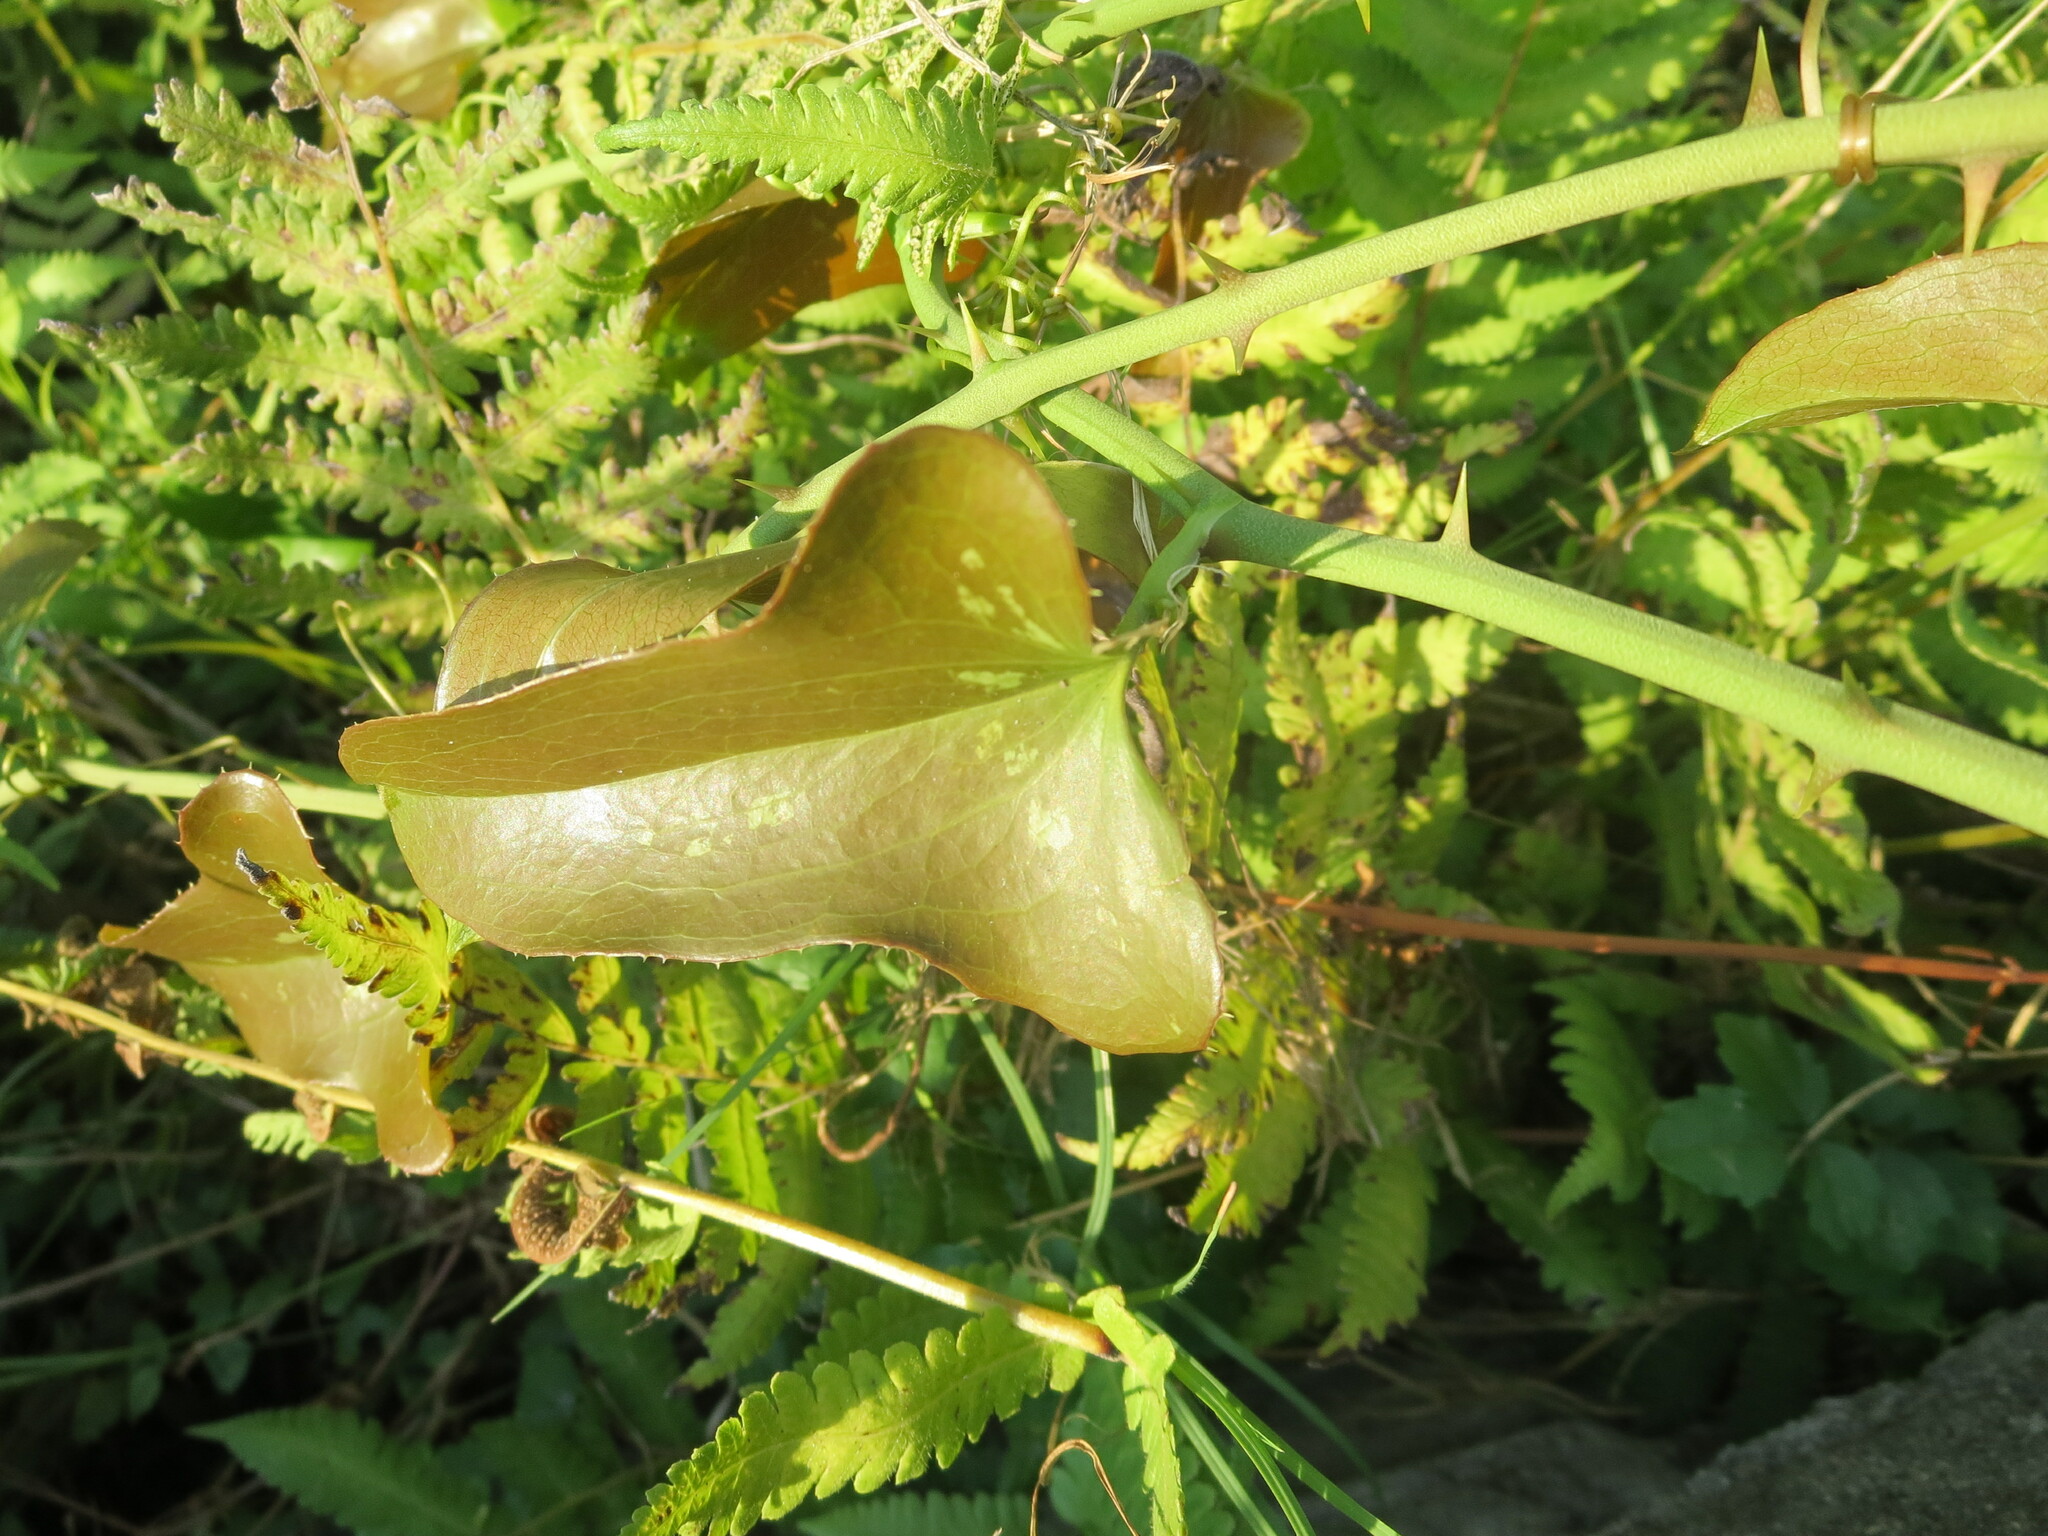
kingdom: Plantae
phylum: Tracheophyta
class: Liliopsida
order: Liliales
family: Smilacaceae
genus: Smilax
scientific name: Smilax bona-nox
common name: Catbrier
